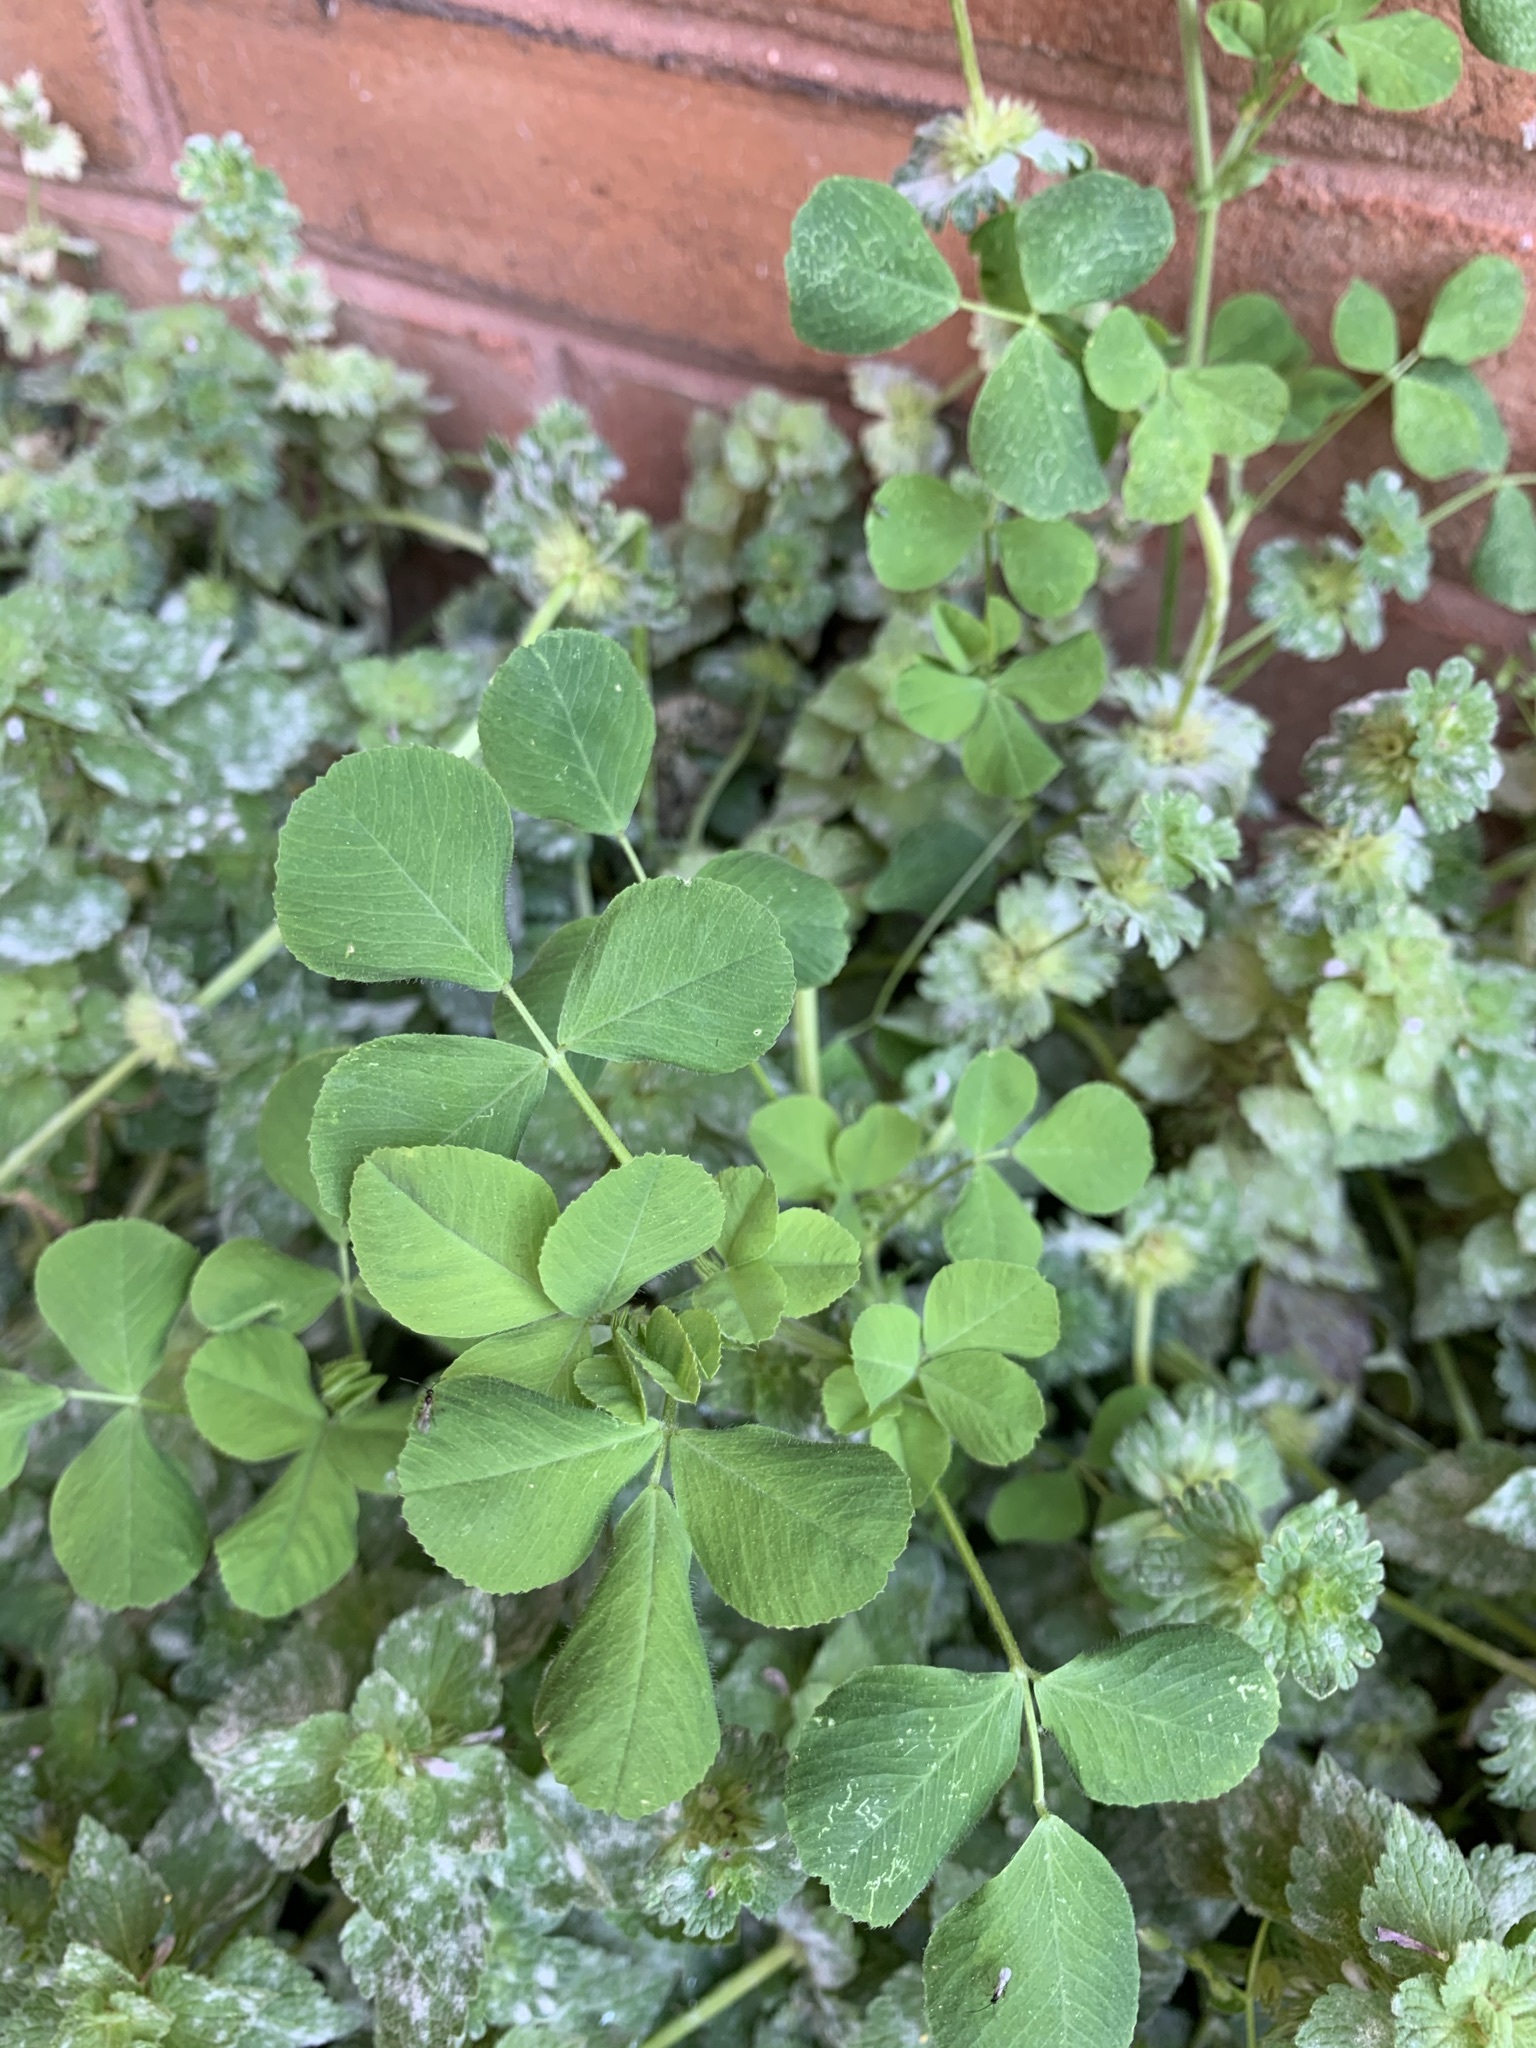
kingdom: Plantae
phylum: Tracheophyta
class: Magnoliopsida
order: Fabales
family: Fabaceae
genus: Medicago
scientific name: Medicago lupulina
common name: Black medick
